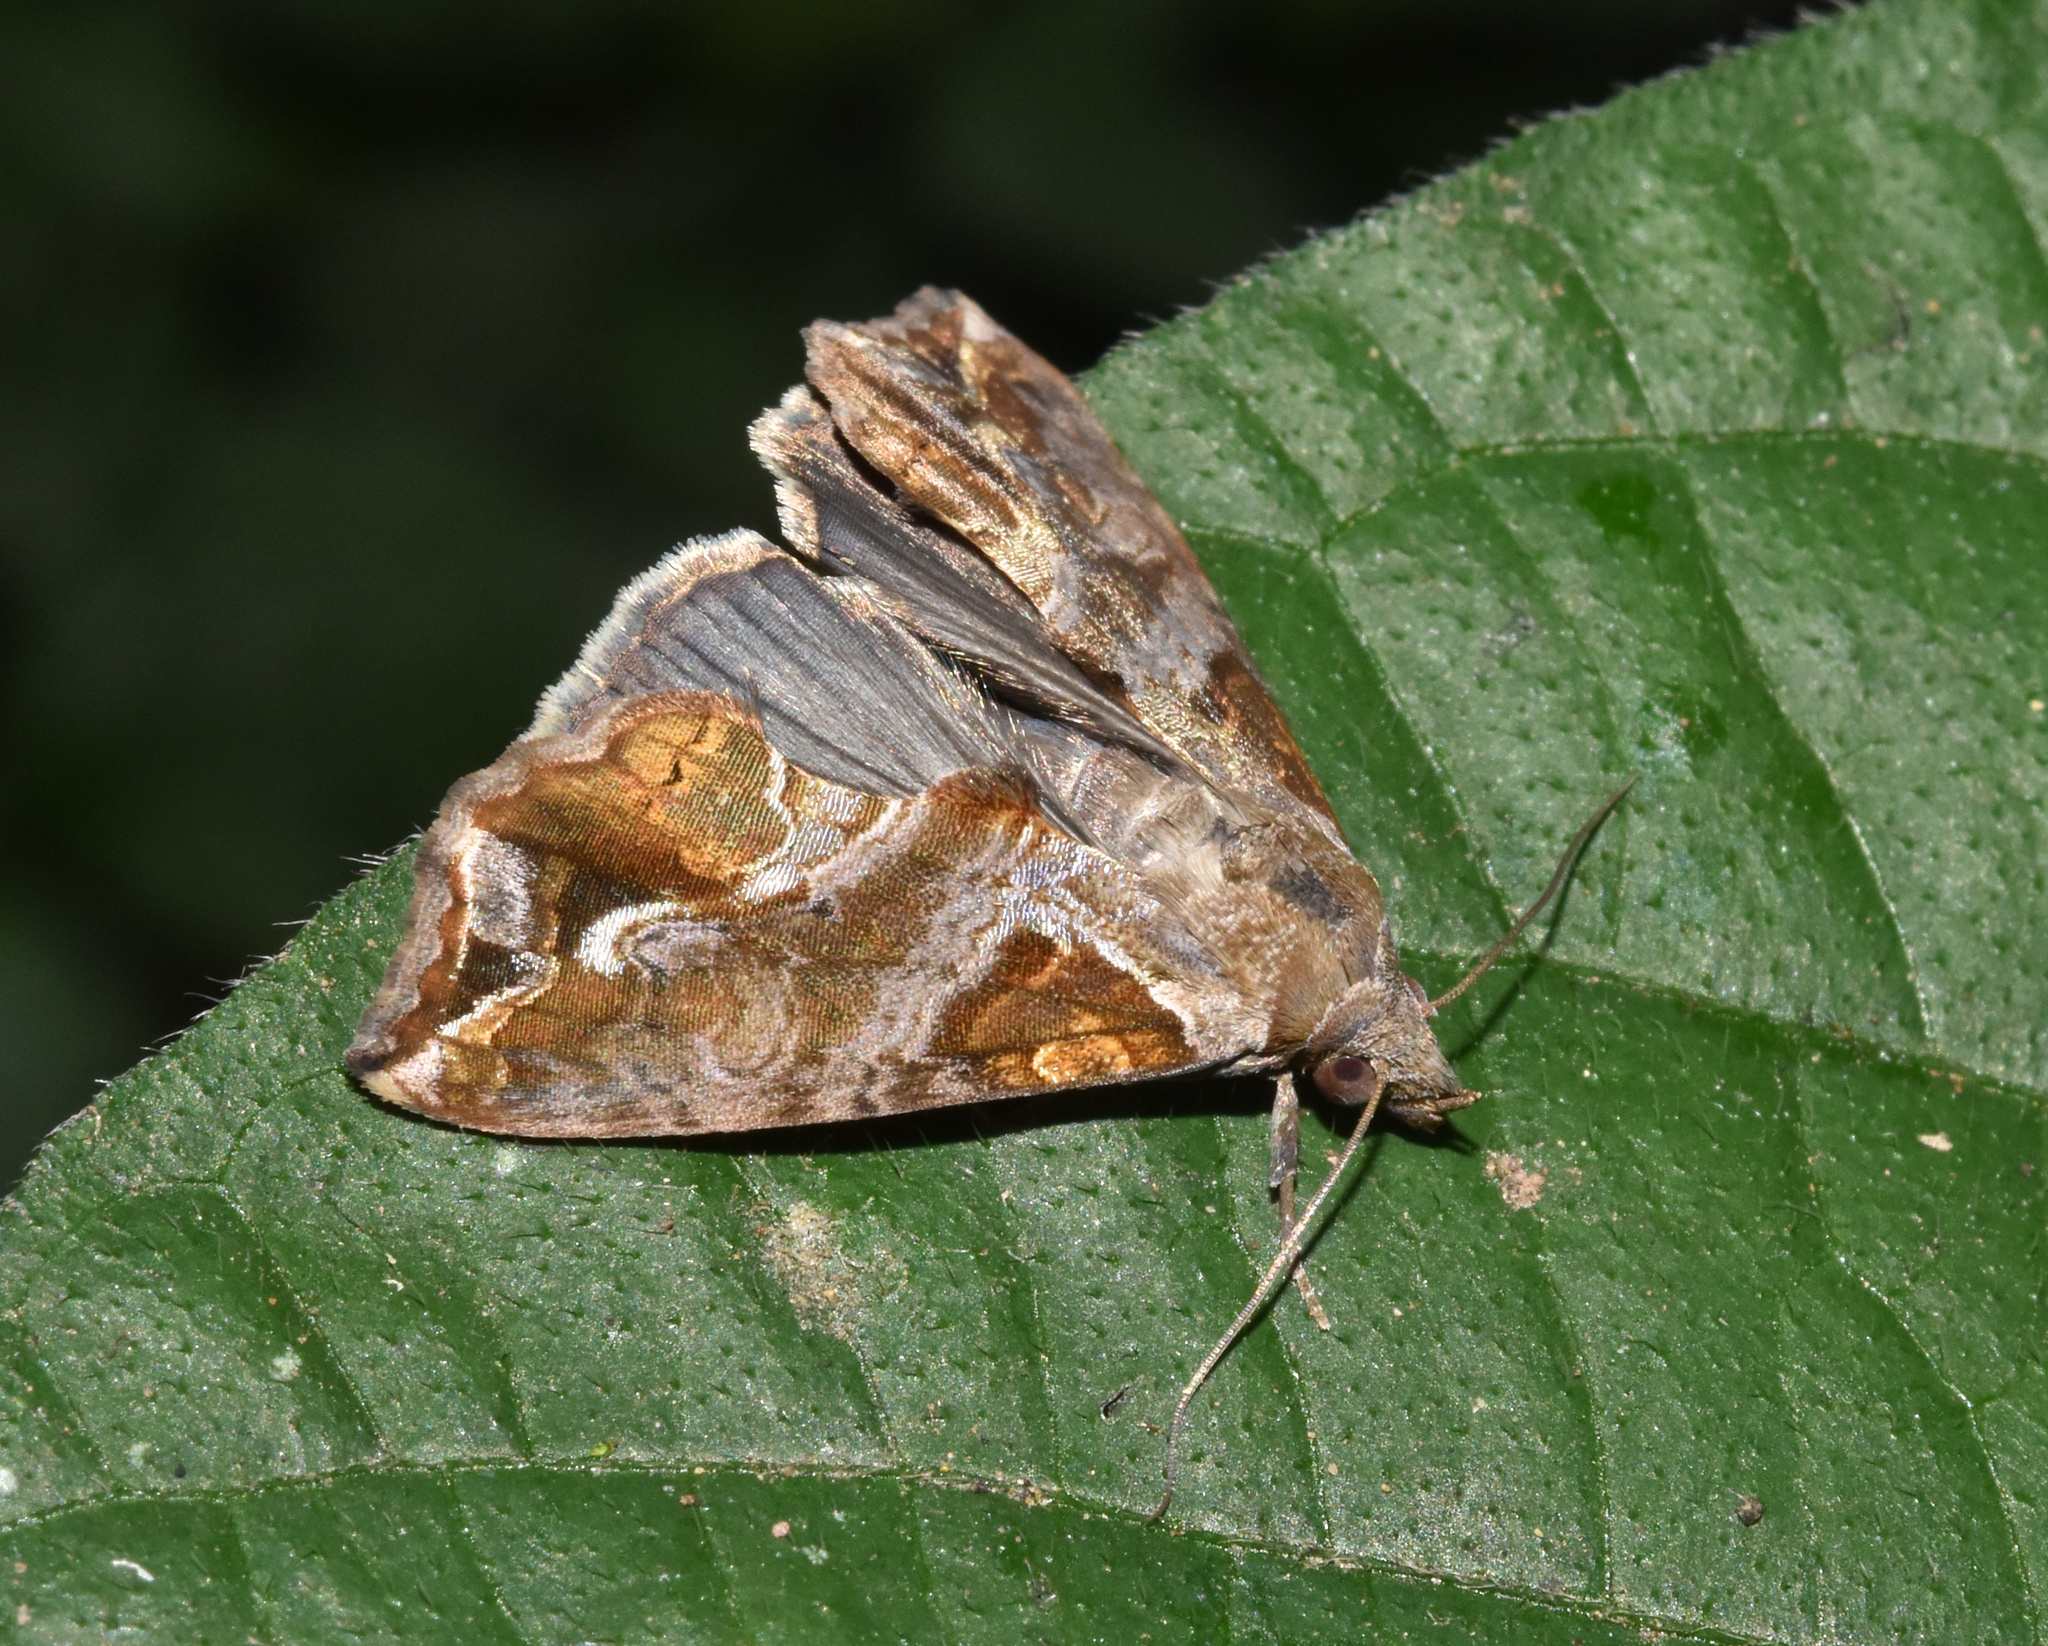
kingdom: Animalia
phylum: Arthropoda
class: Insecta
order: Lepidoptera
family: Erebidae
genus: Plusiodonta
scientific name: Plusiodonta wahlbergi
